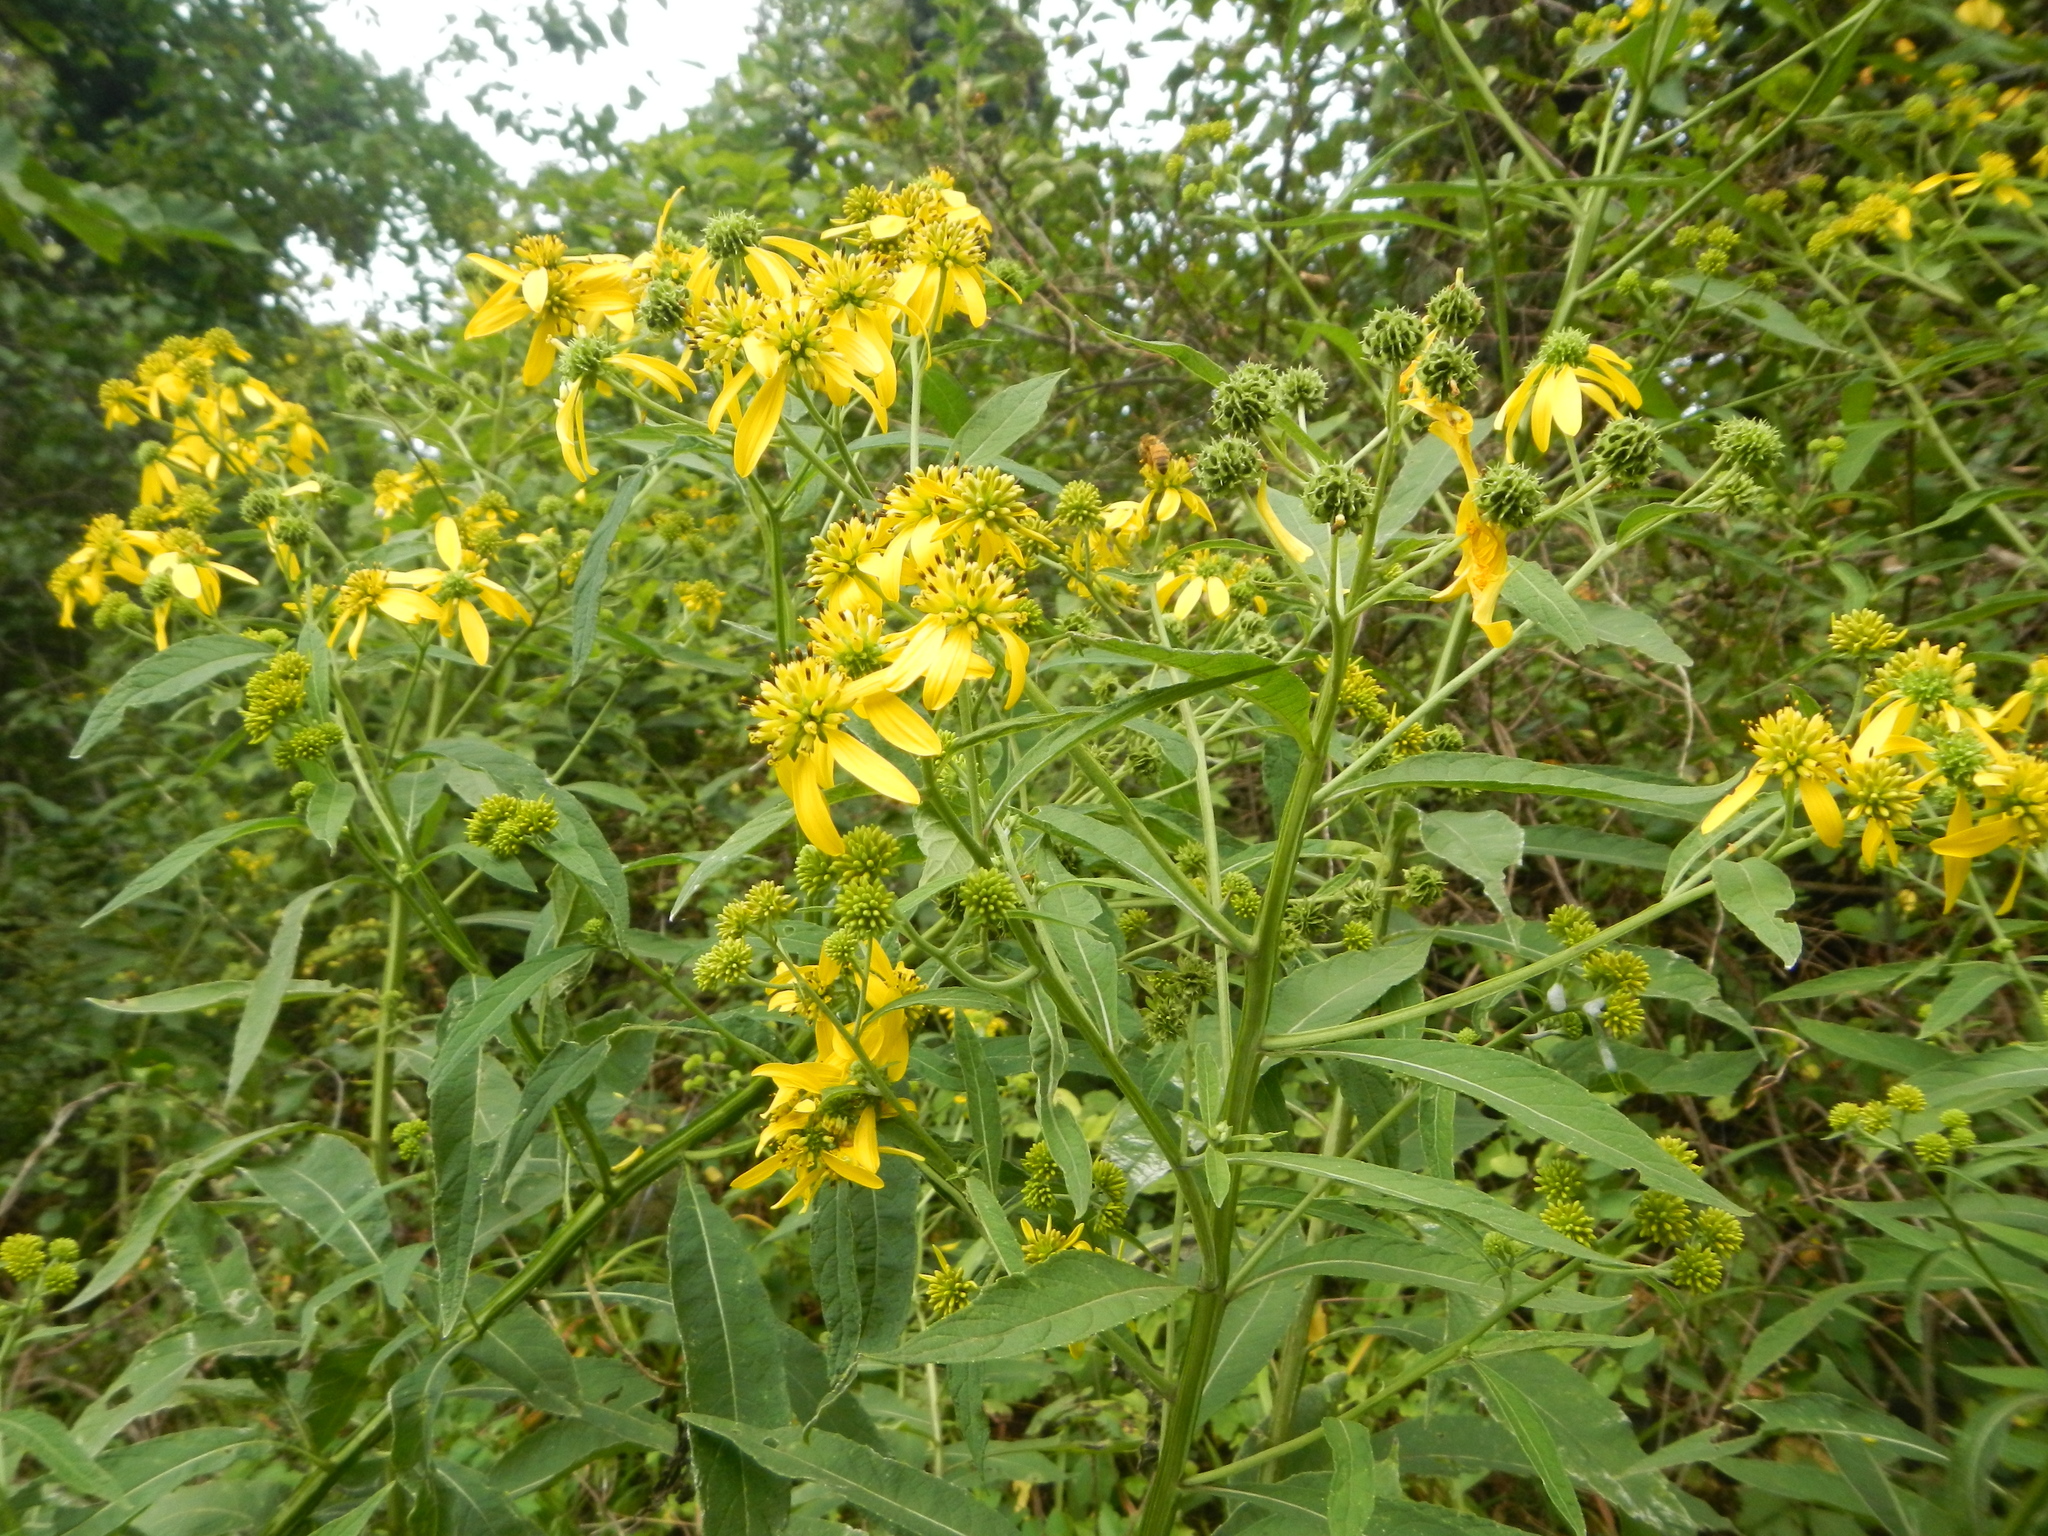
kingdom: Plantae
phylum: Tracheophyta
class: Magnoliopsida
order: Asterales
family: Asteraceae
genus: Verbesina
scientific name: Verbesina alternifolia
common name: Wingstem
